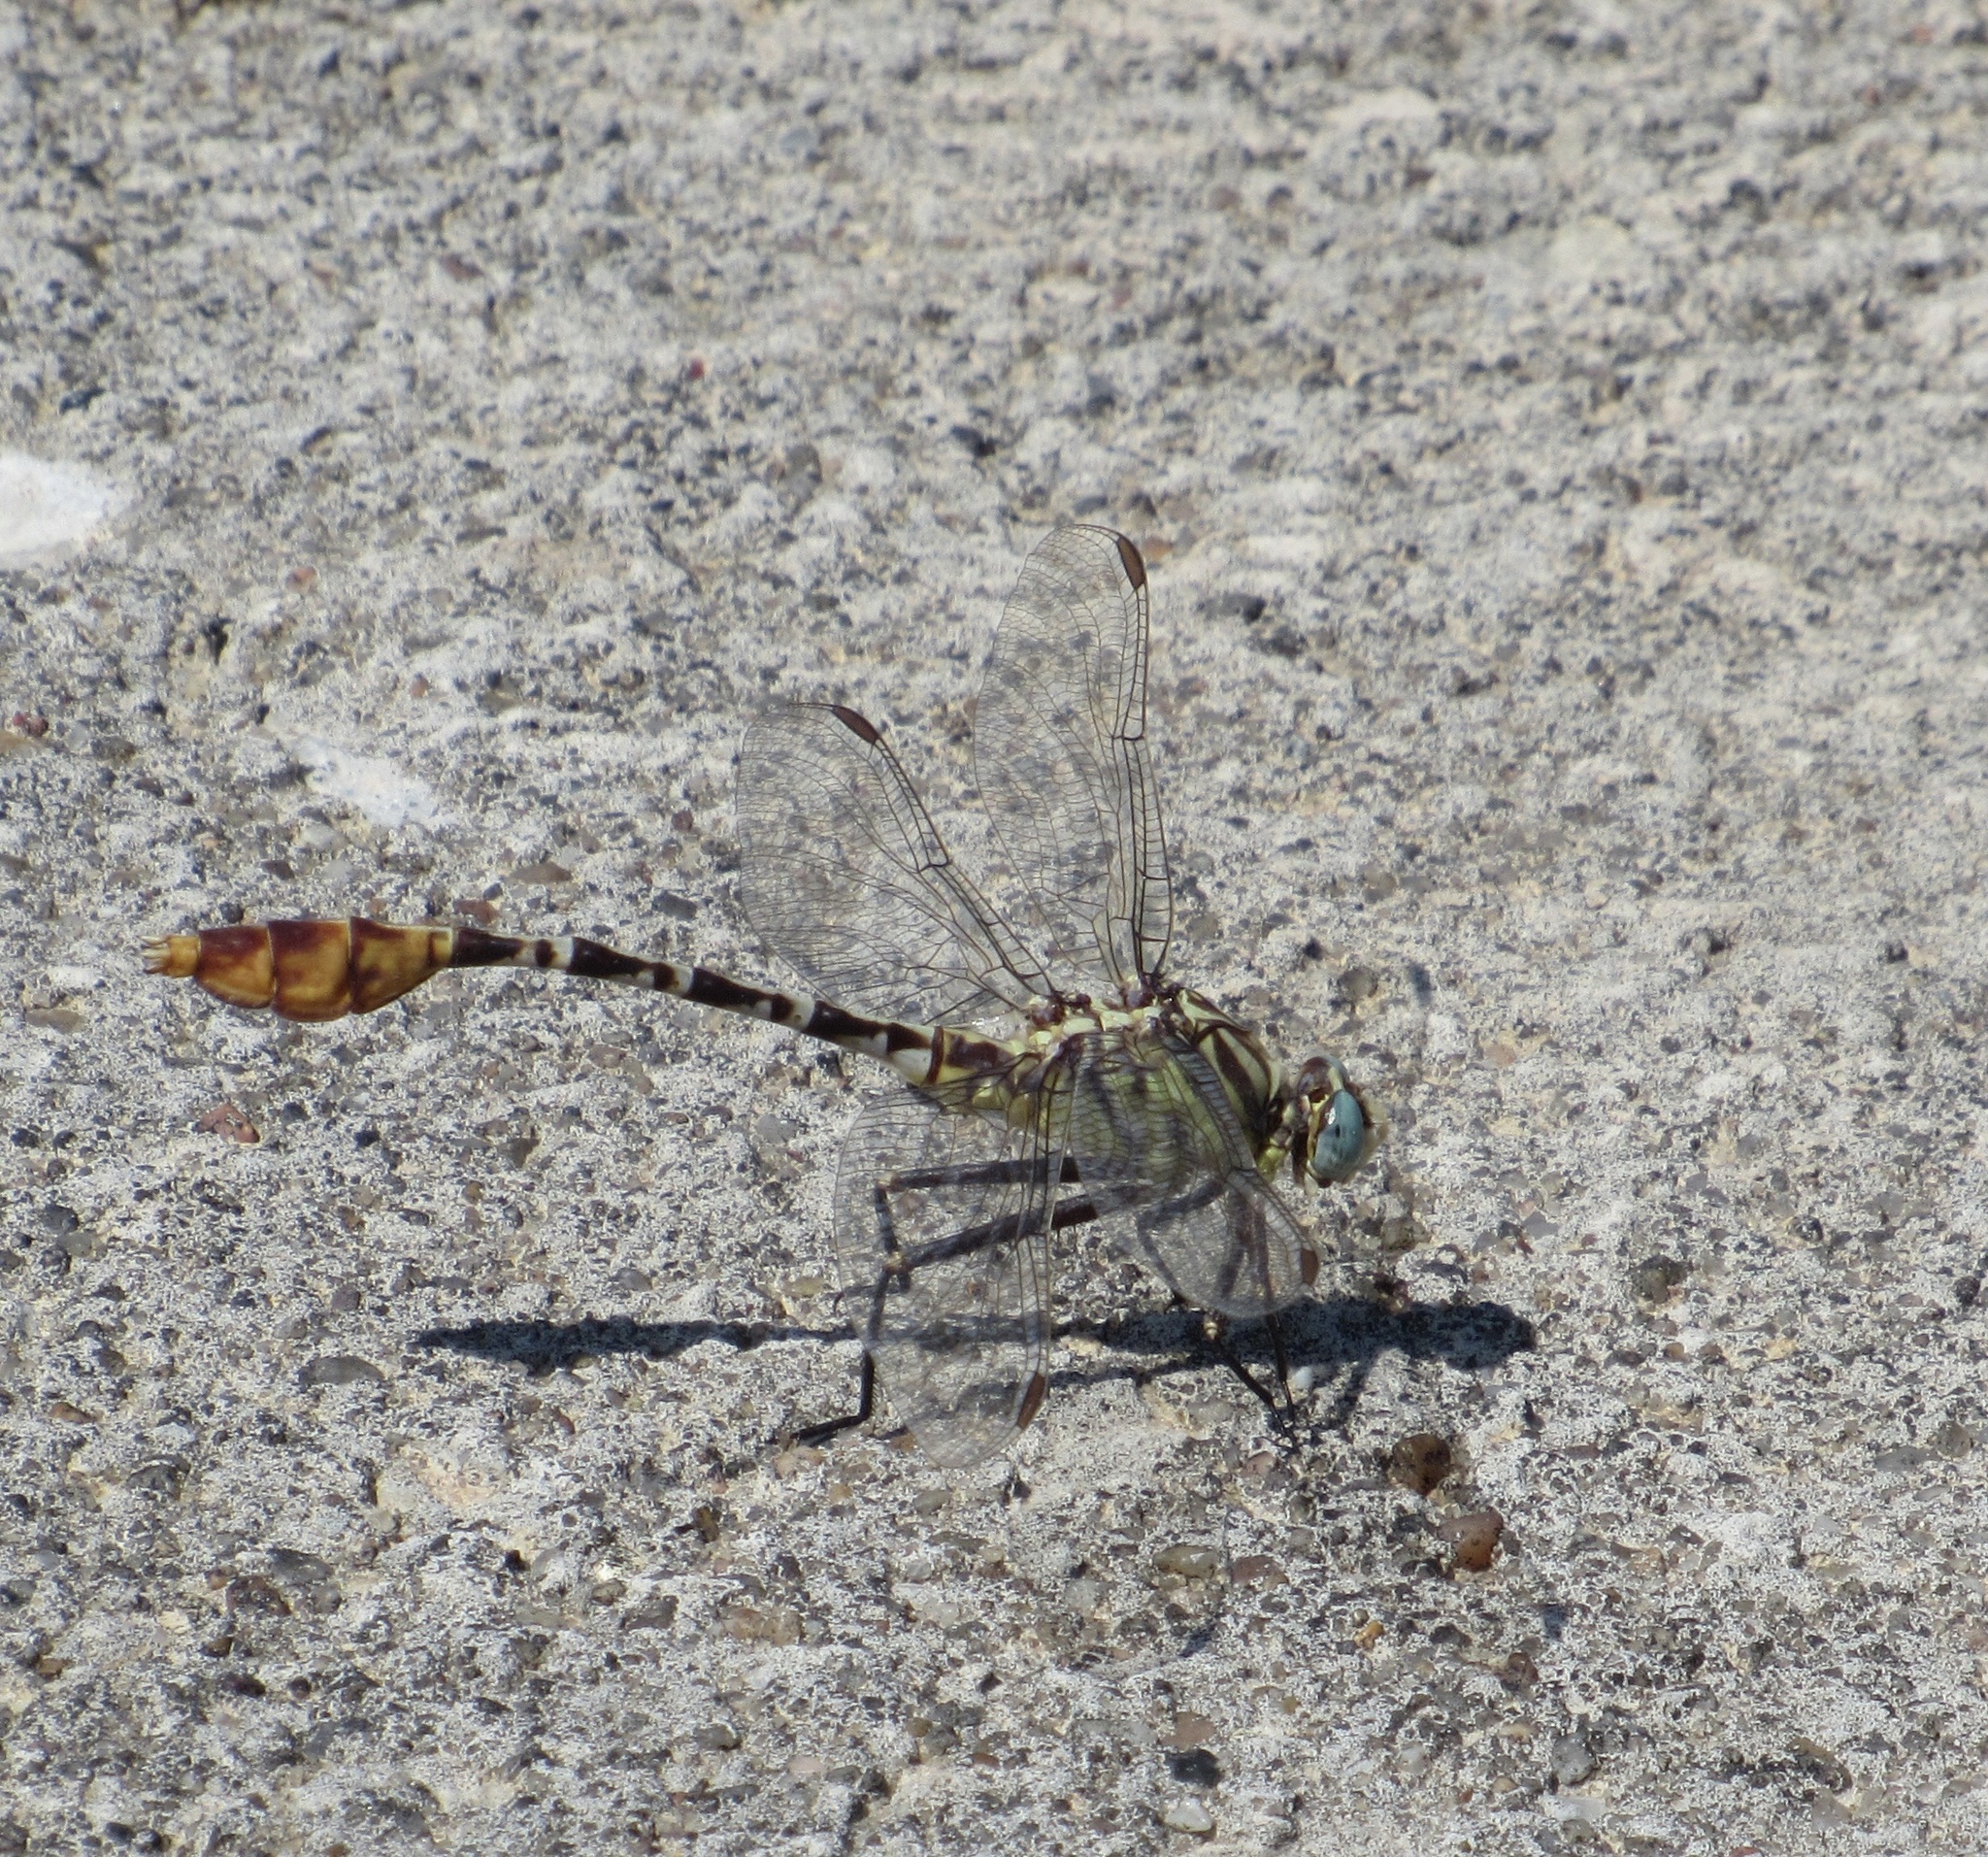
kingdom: Animalia
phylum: Arthropoda
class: Insecta
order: Odonata
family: Gomphidae
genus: Dromogomphus
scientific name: Dromogomphus spoliatus
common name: Flag-tailed spinyleg
